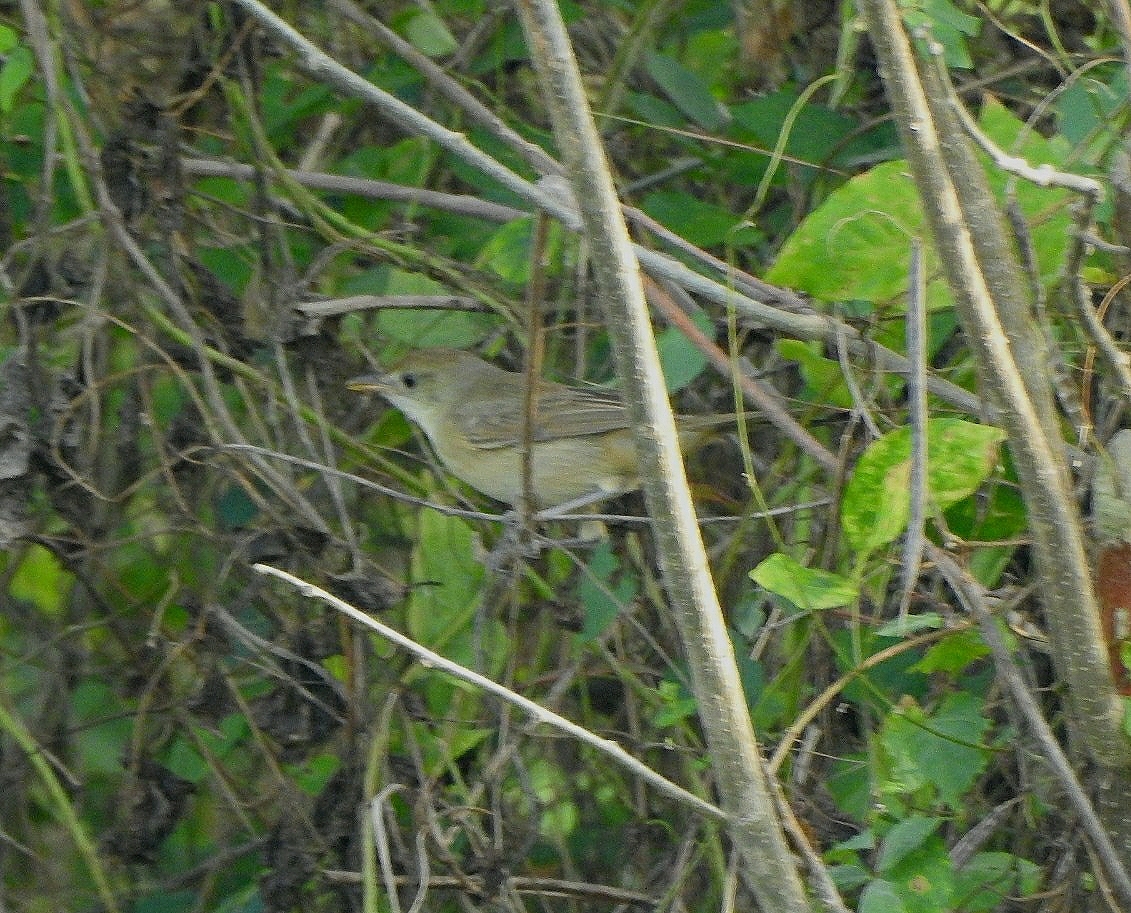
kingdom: Animalia
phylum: Chordata
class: Aves
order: Passeriformes
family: Acrocephalidae
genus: Iduna
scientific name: Iduna aedon
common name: Thick-billed warbler
